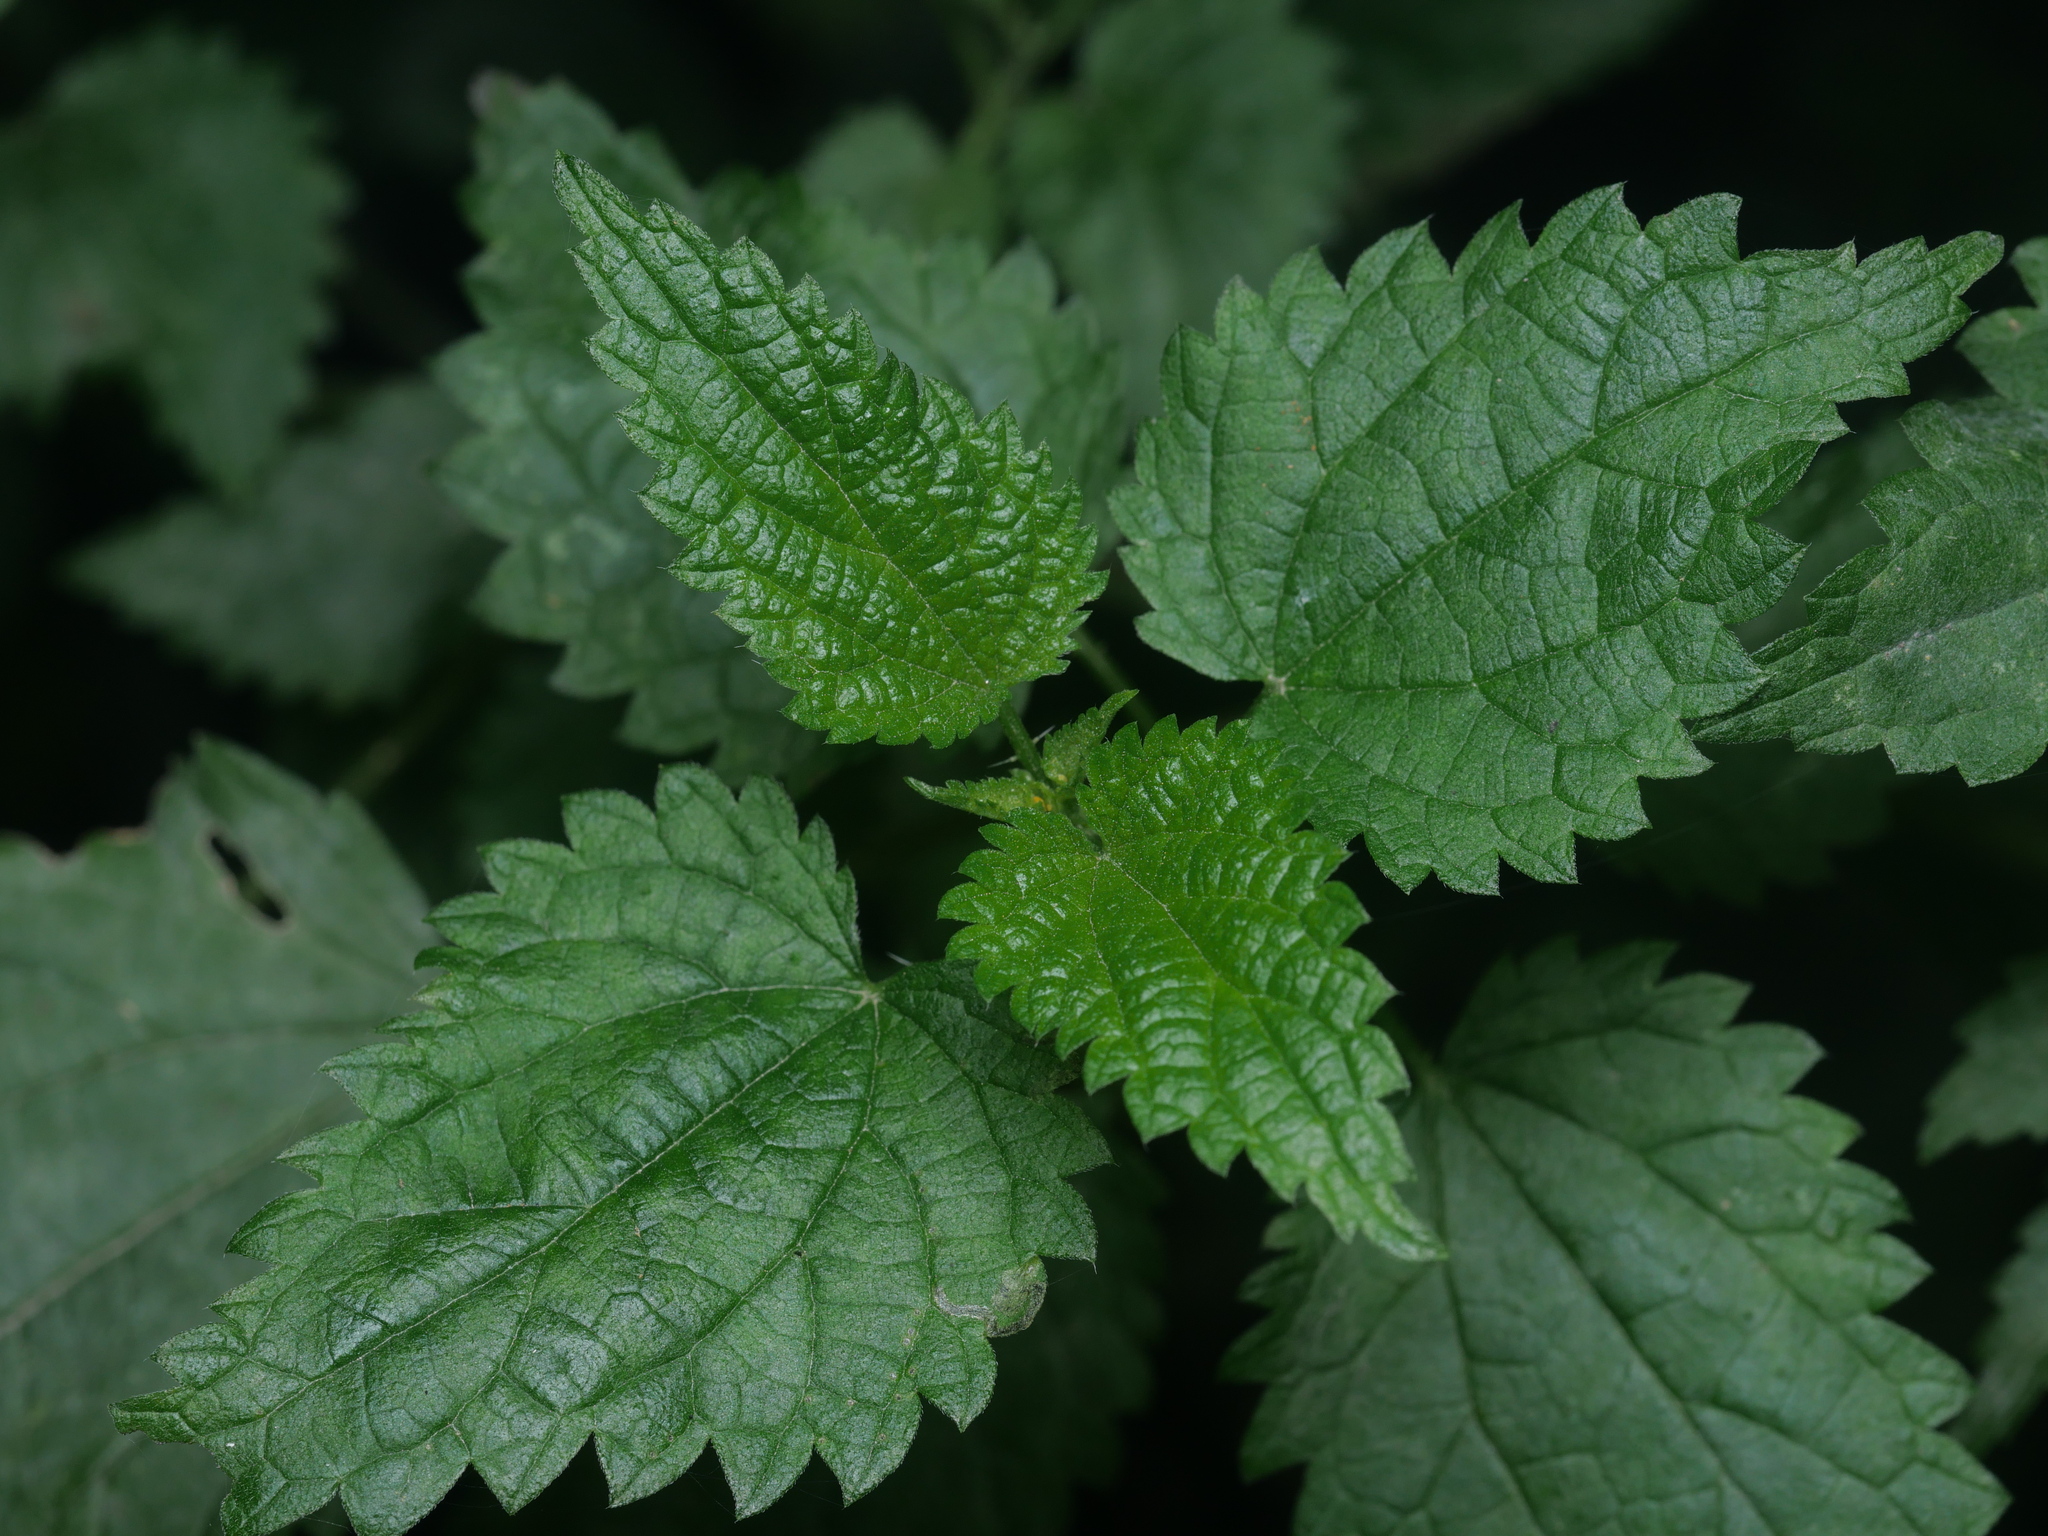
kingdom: Plantae
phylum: Tracheophyta
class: Magnoliopsida
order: Rosales
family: Urticaceae
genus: Urtica
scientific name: Urtica dioica
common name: Common nettle
